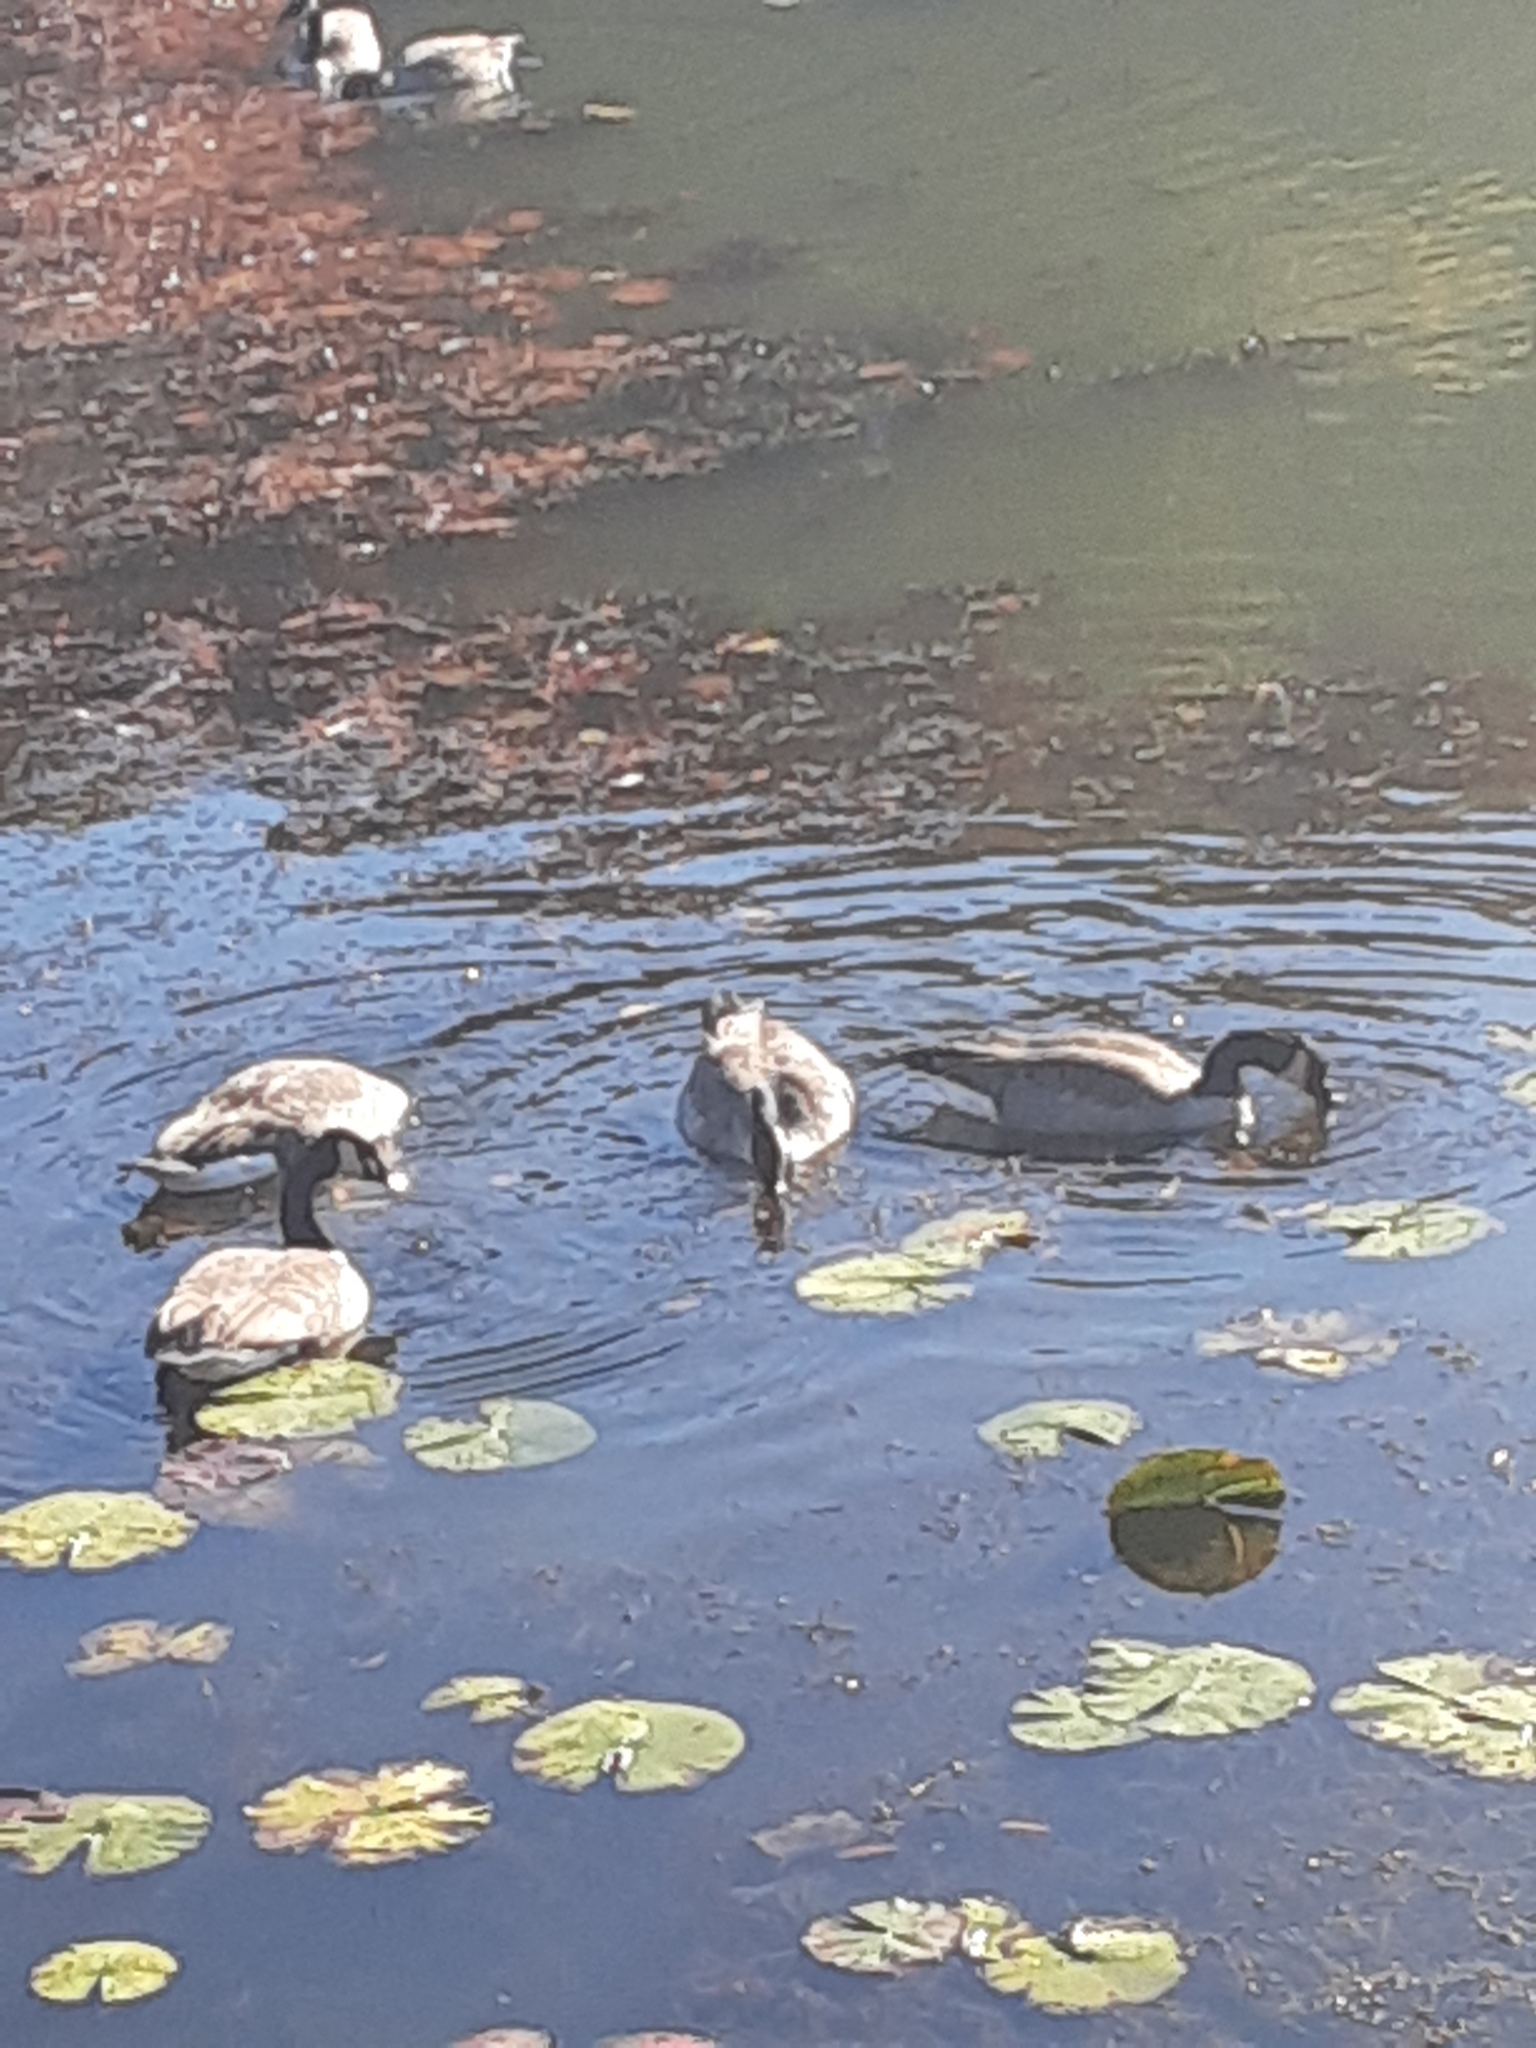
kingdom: Animalia
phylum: Chordata
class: Aves
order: Anseriformes
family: Anatidae
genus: Branta
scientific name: Branta canadensis
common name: Canada goose
